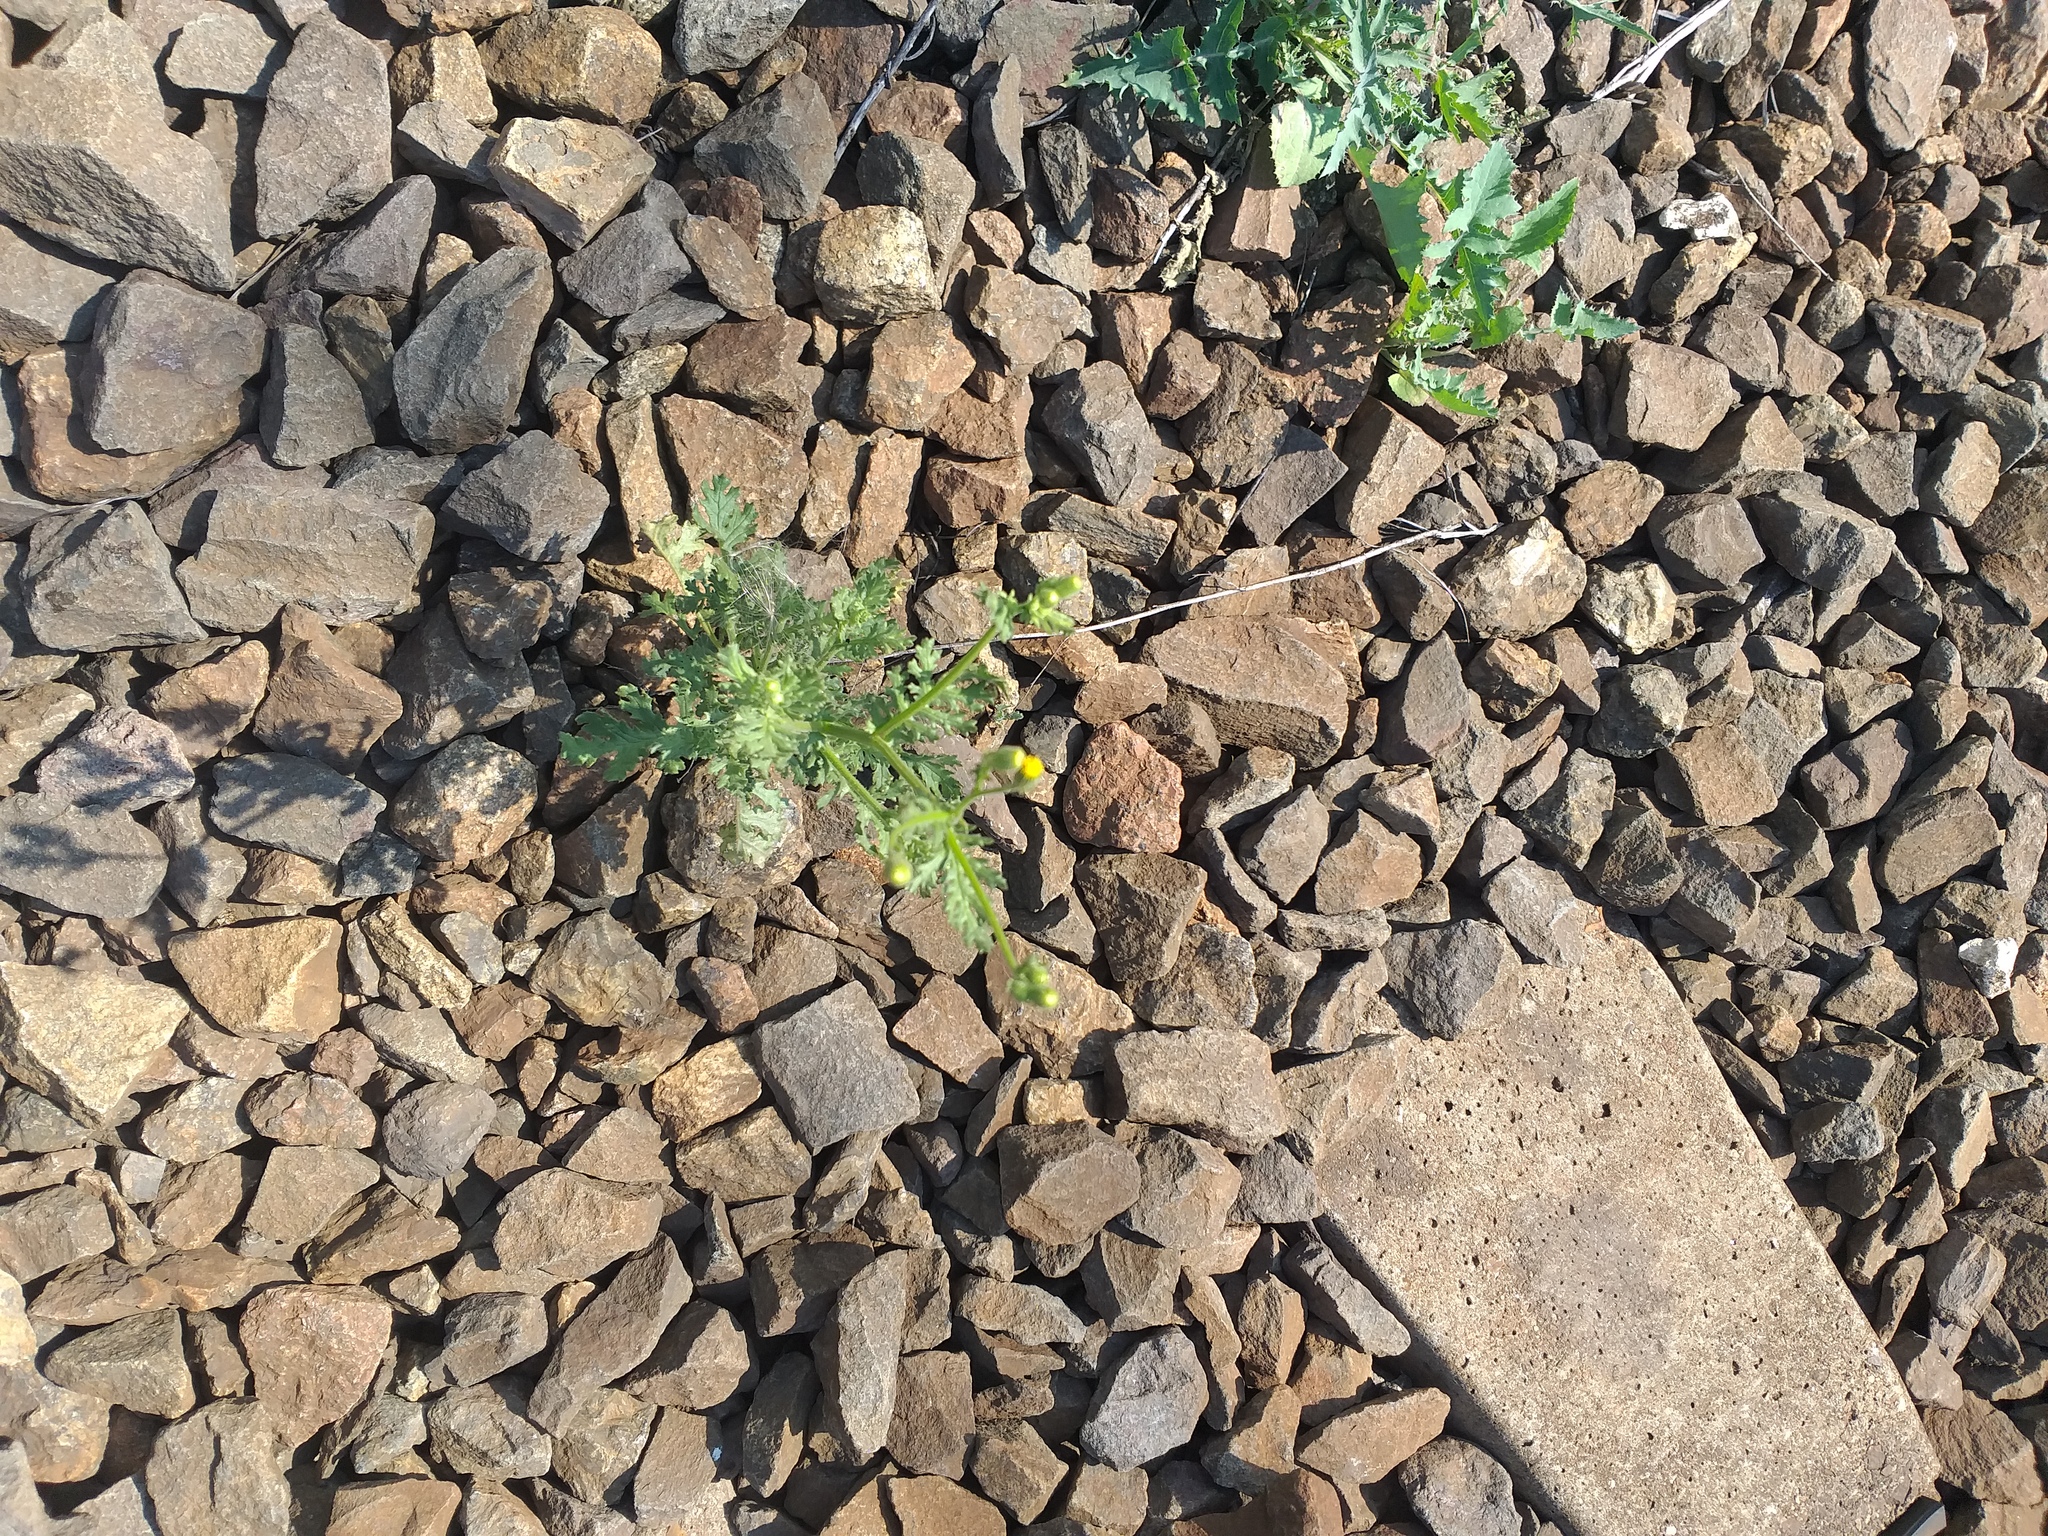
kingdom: Plantae
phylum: Tracheophyta
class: Magnoliopsida
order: Asterales
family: Asteraceae
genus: Senecio
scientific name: Senecio viscosus
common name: Sticky groundsel
